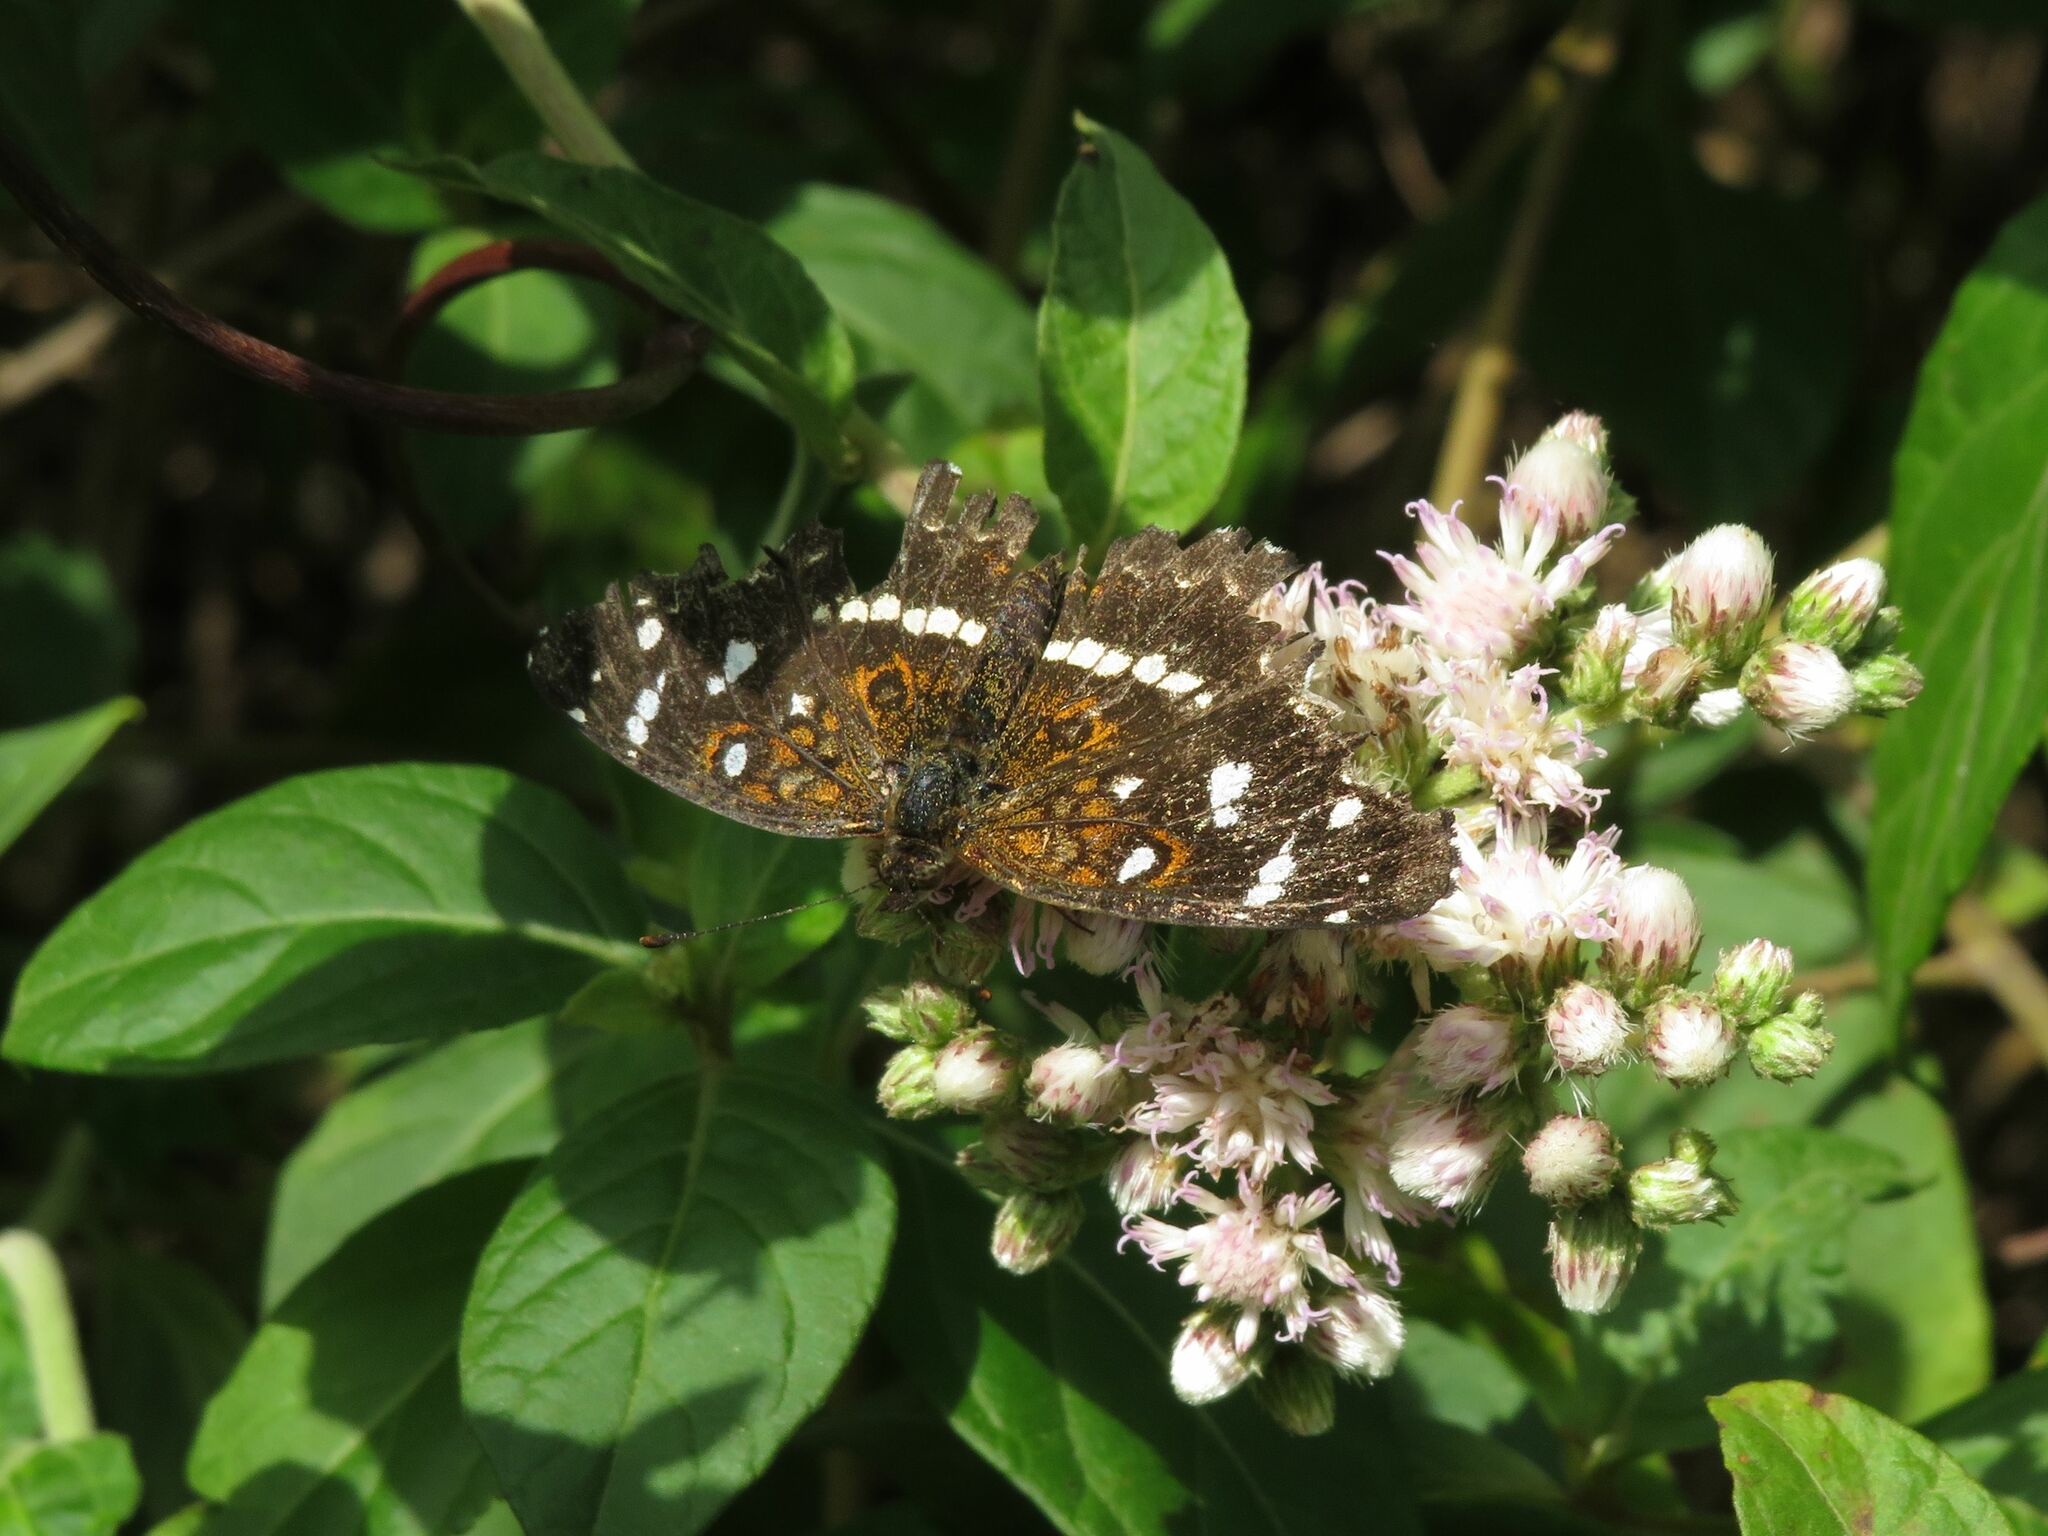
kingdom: Animalia
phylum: Arthropoda
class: Insecta
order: Lepidoptera
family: Nymphalidae
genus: Ortilia
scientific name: Ortilia ithra
